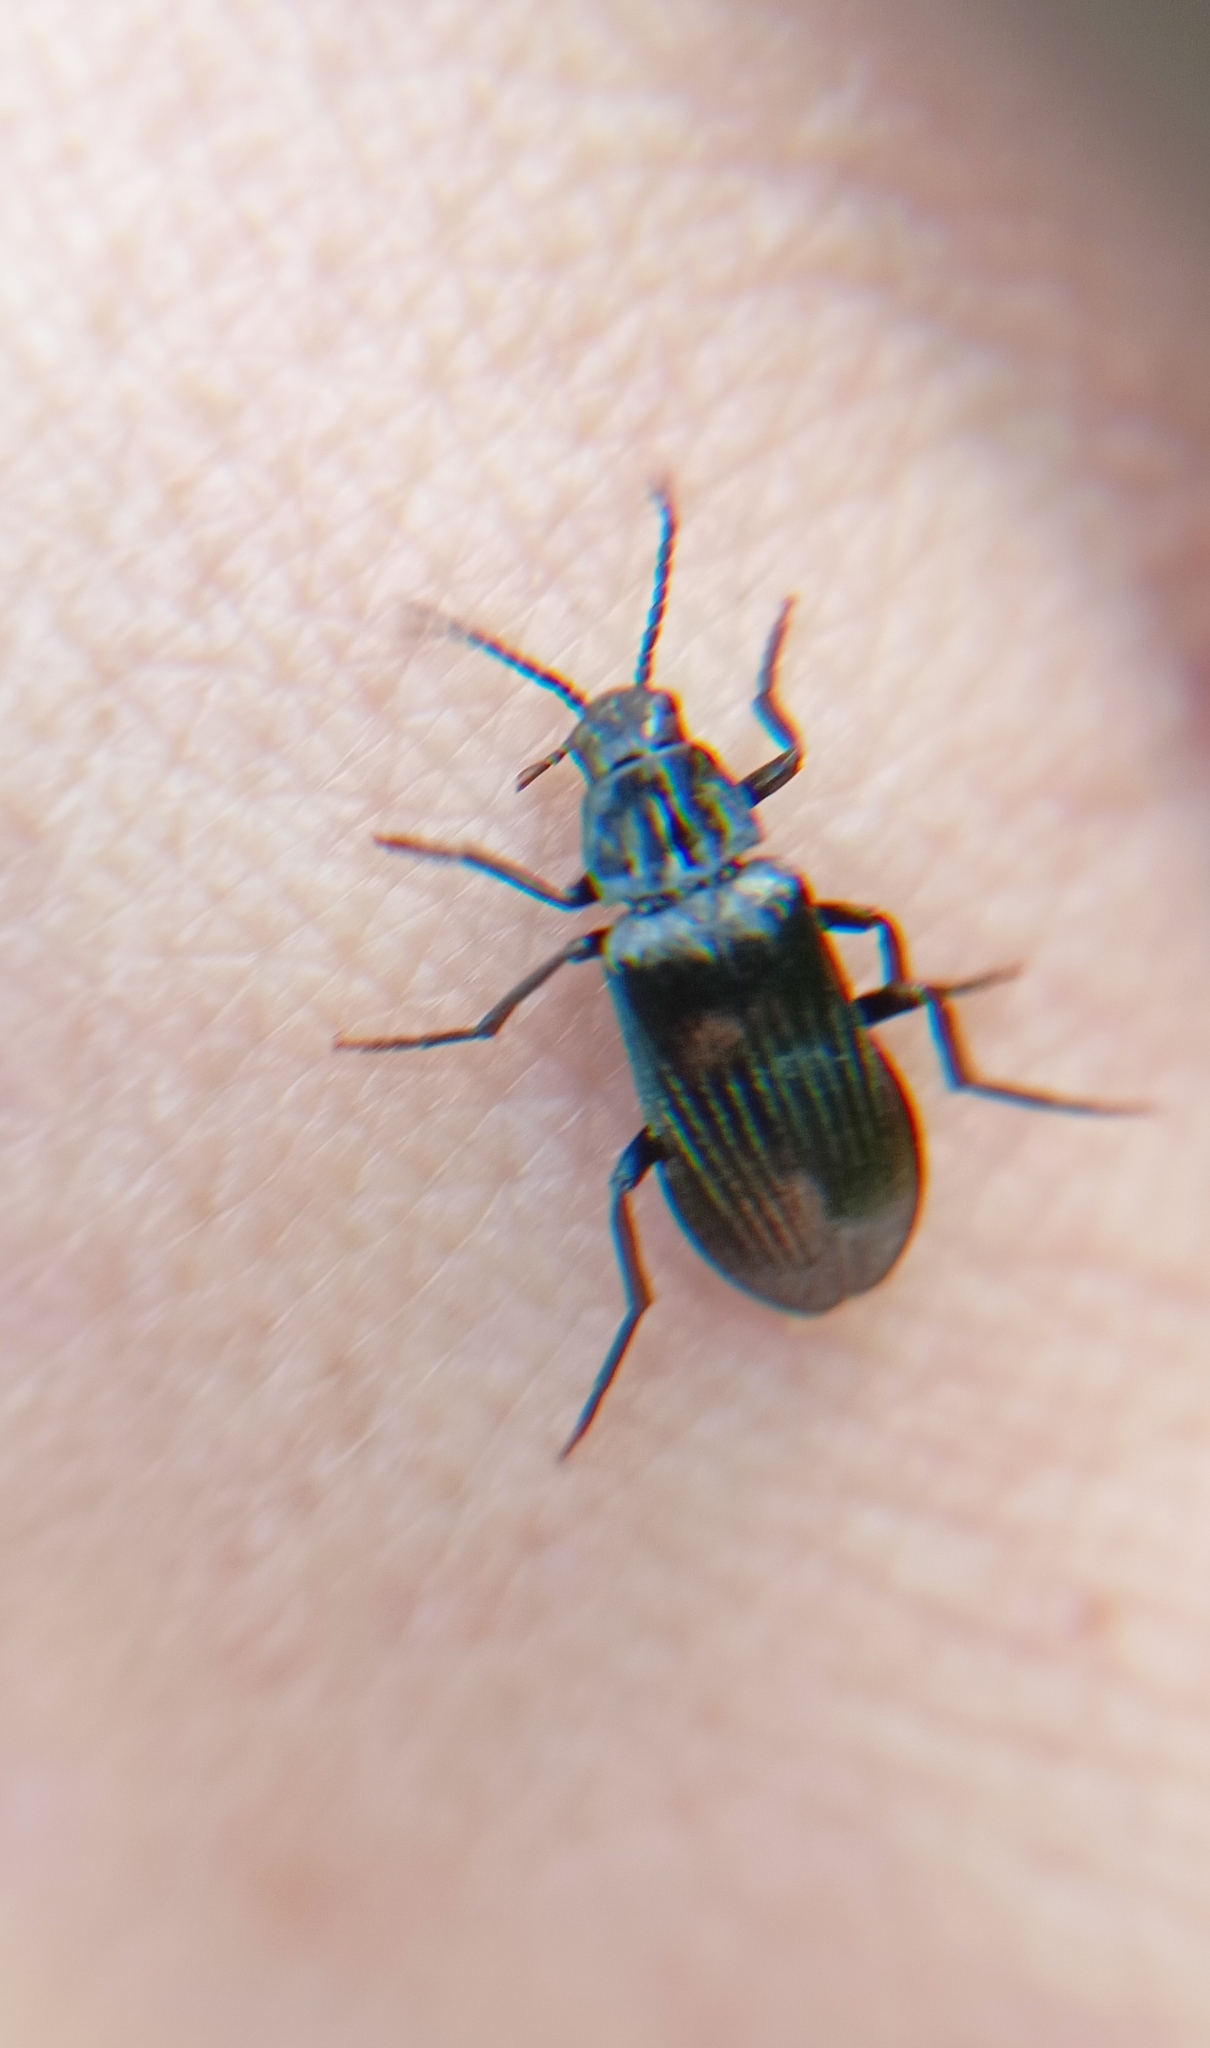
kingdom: Animalia
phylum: Arthropoda
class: Insecta
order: Coleoptera
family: Melandryidae
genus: Melandrya
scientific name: Melandrya dubia
